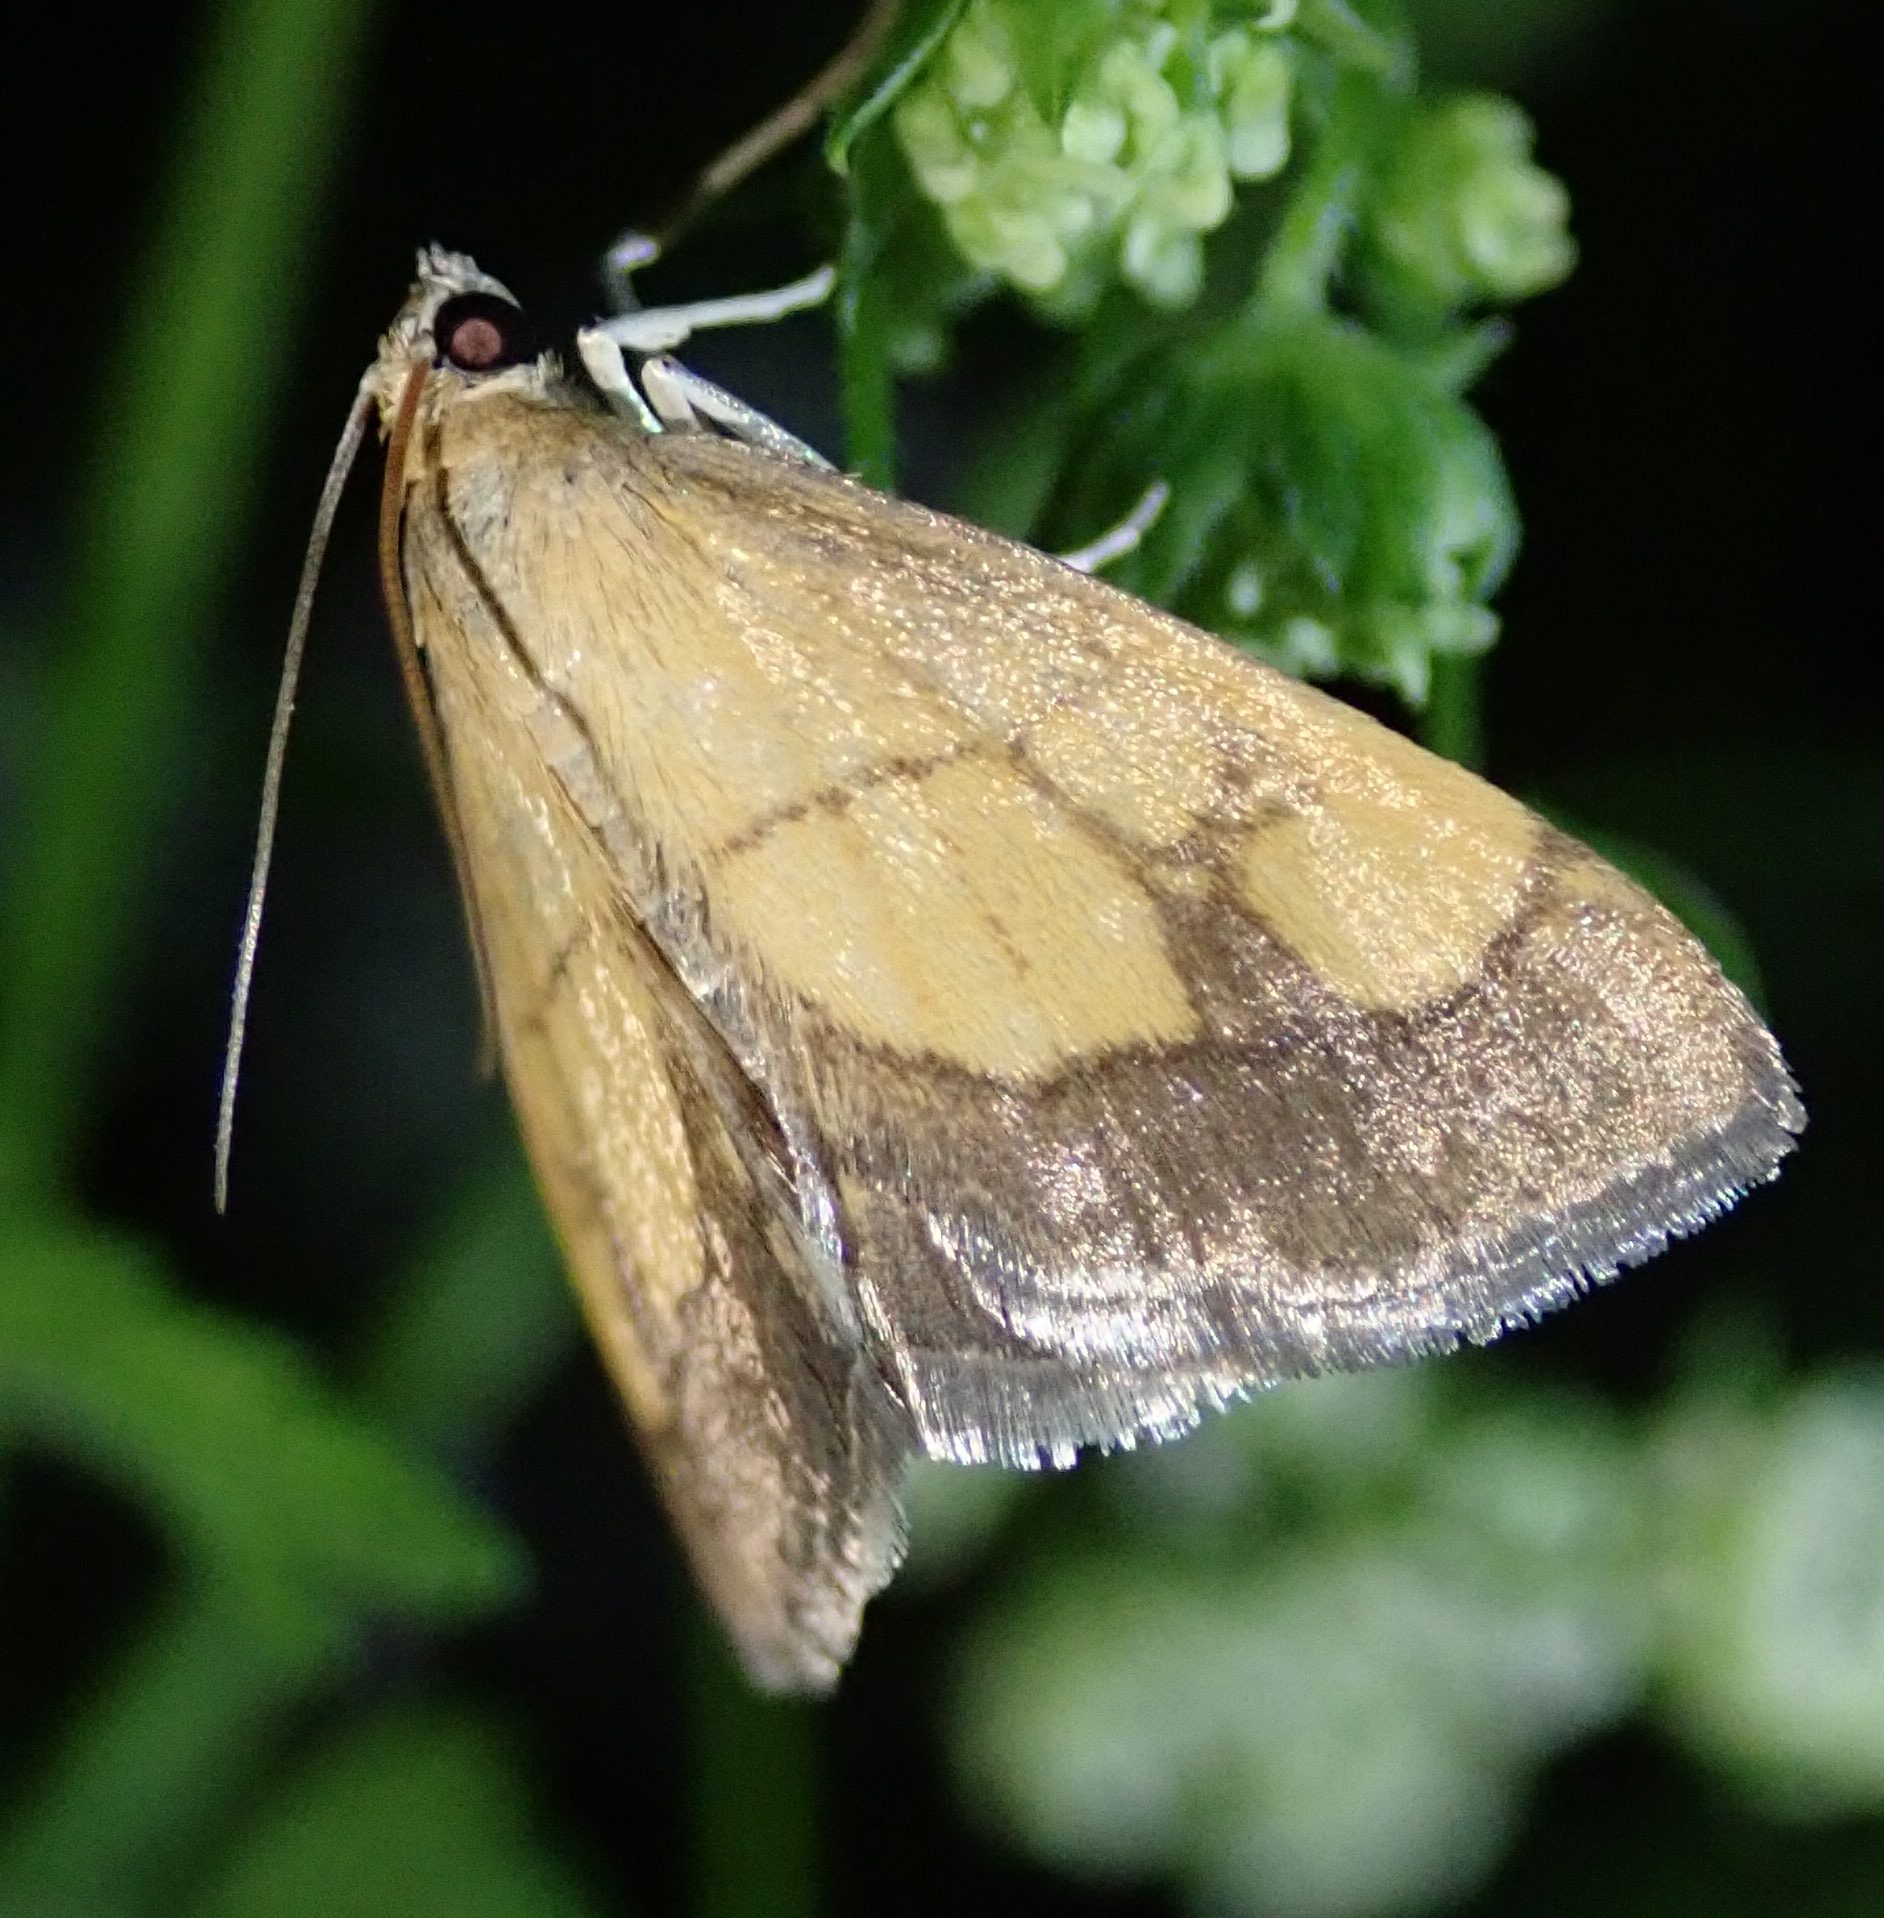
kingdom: Animalia
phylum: Arthropoda
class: Insecta
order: Lepidoptera
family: Crambidae
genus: Evergestis
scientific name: Evergestis limbata
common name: Dark bordered pearl
